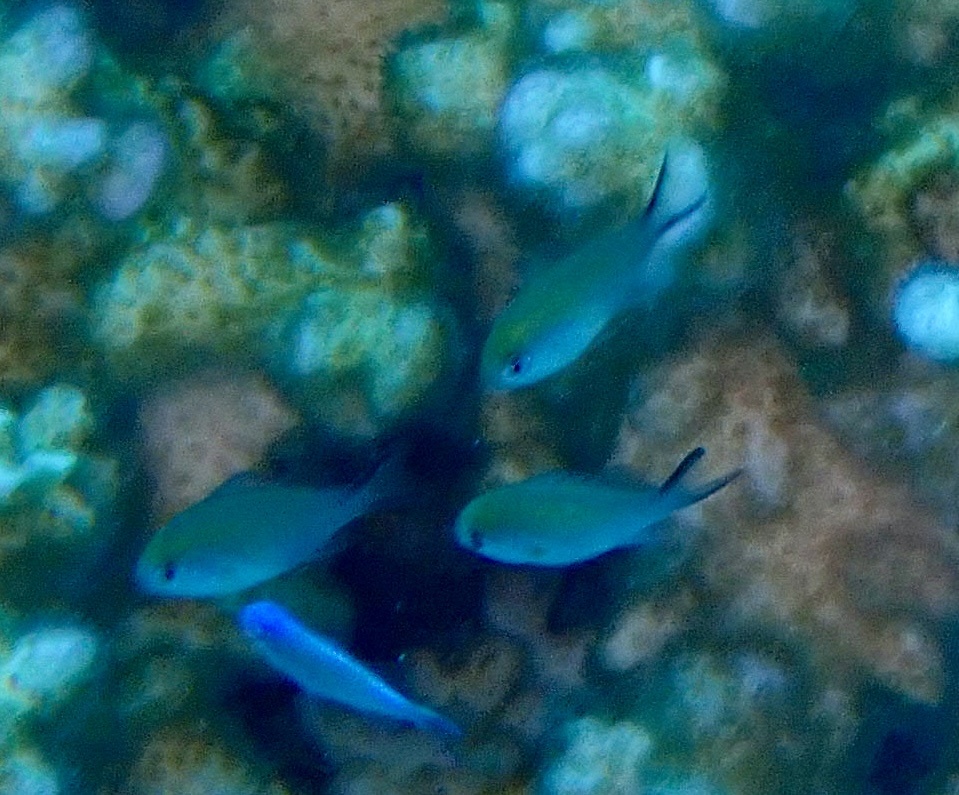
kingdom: Animalia
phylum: Chordata
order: Perciformes
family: Pomacentridae
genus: Chromis
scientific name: Chromis flavaxilla
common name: Arabian chromis
